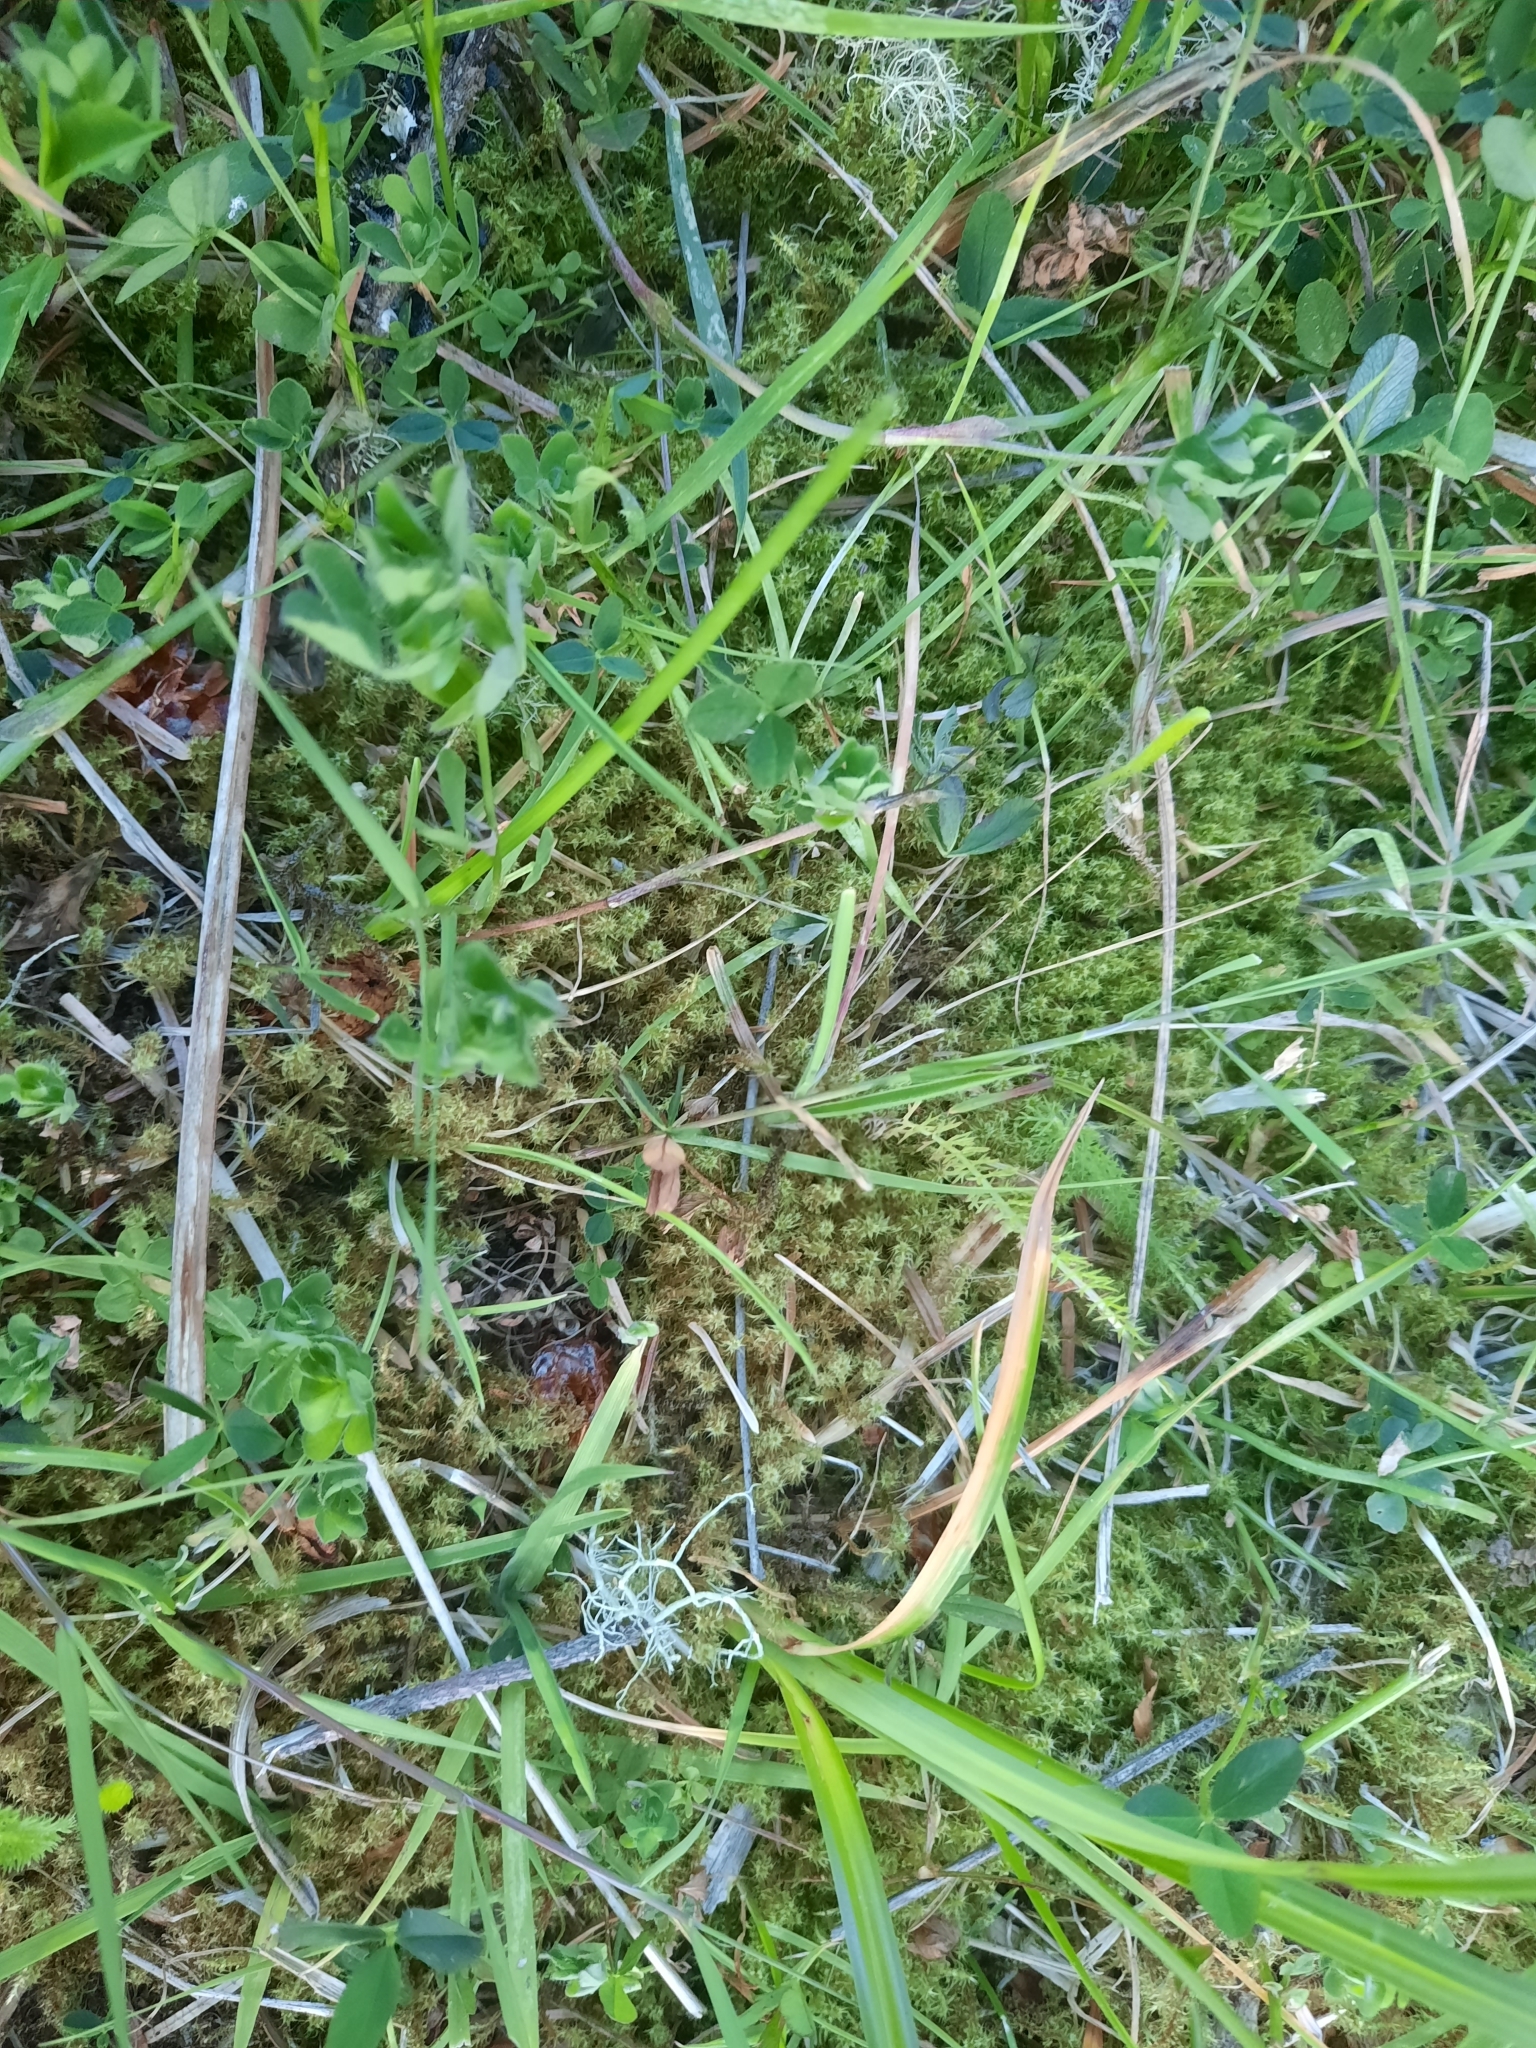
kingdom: Plantae
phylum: Bryophyta
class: Bryopsida
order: Hypnales
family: Hylocomiaceae
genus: Rhytidiadelphus
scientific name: Rhytidiadelphus squarrosus
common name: Springy turf-moss
